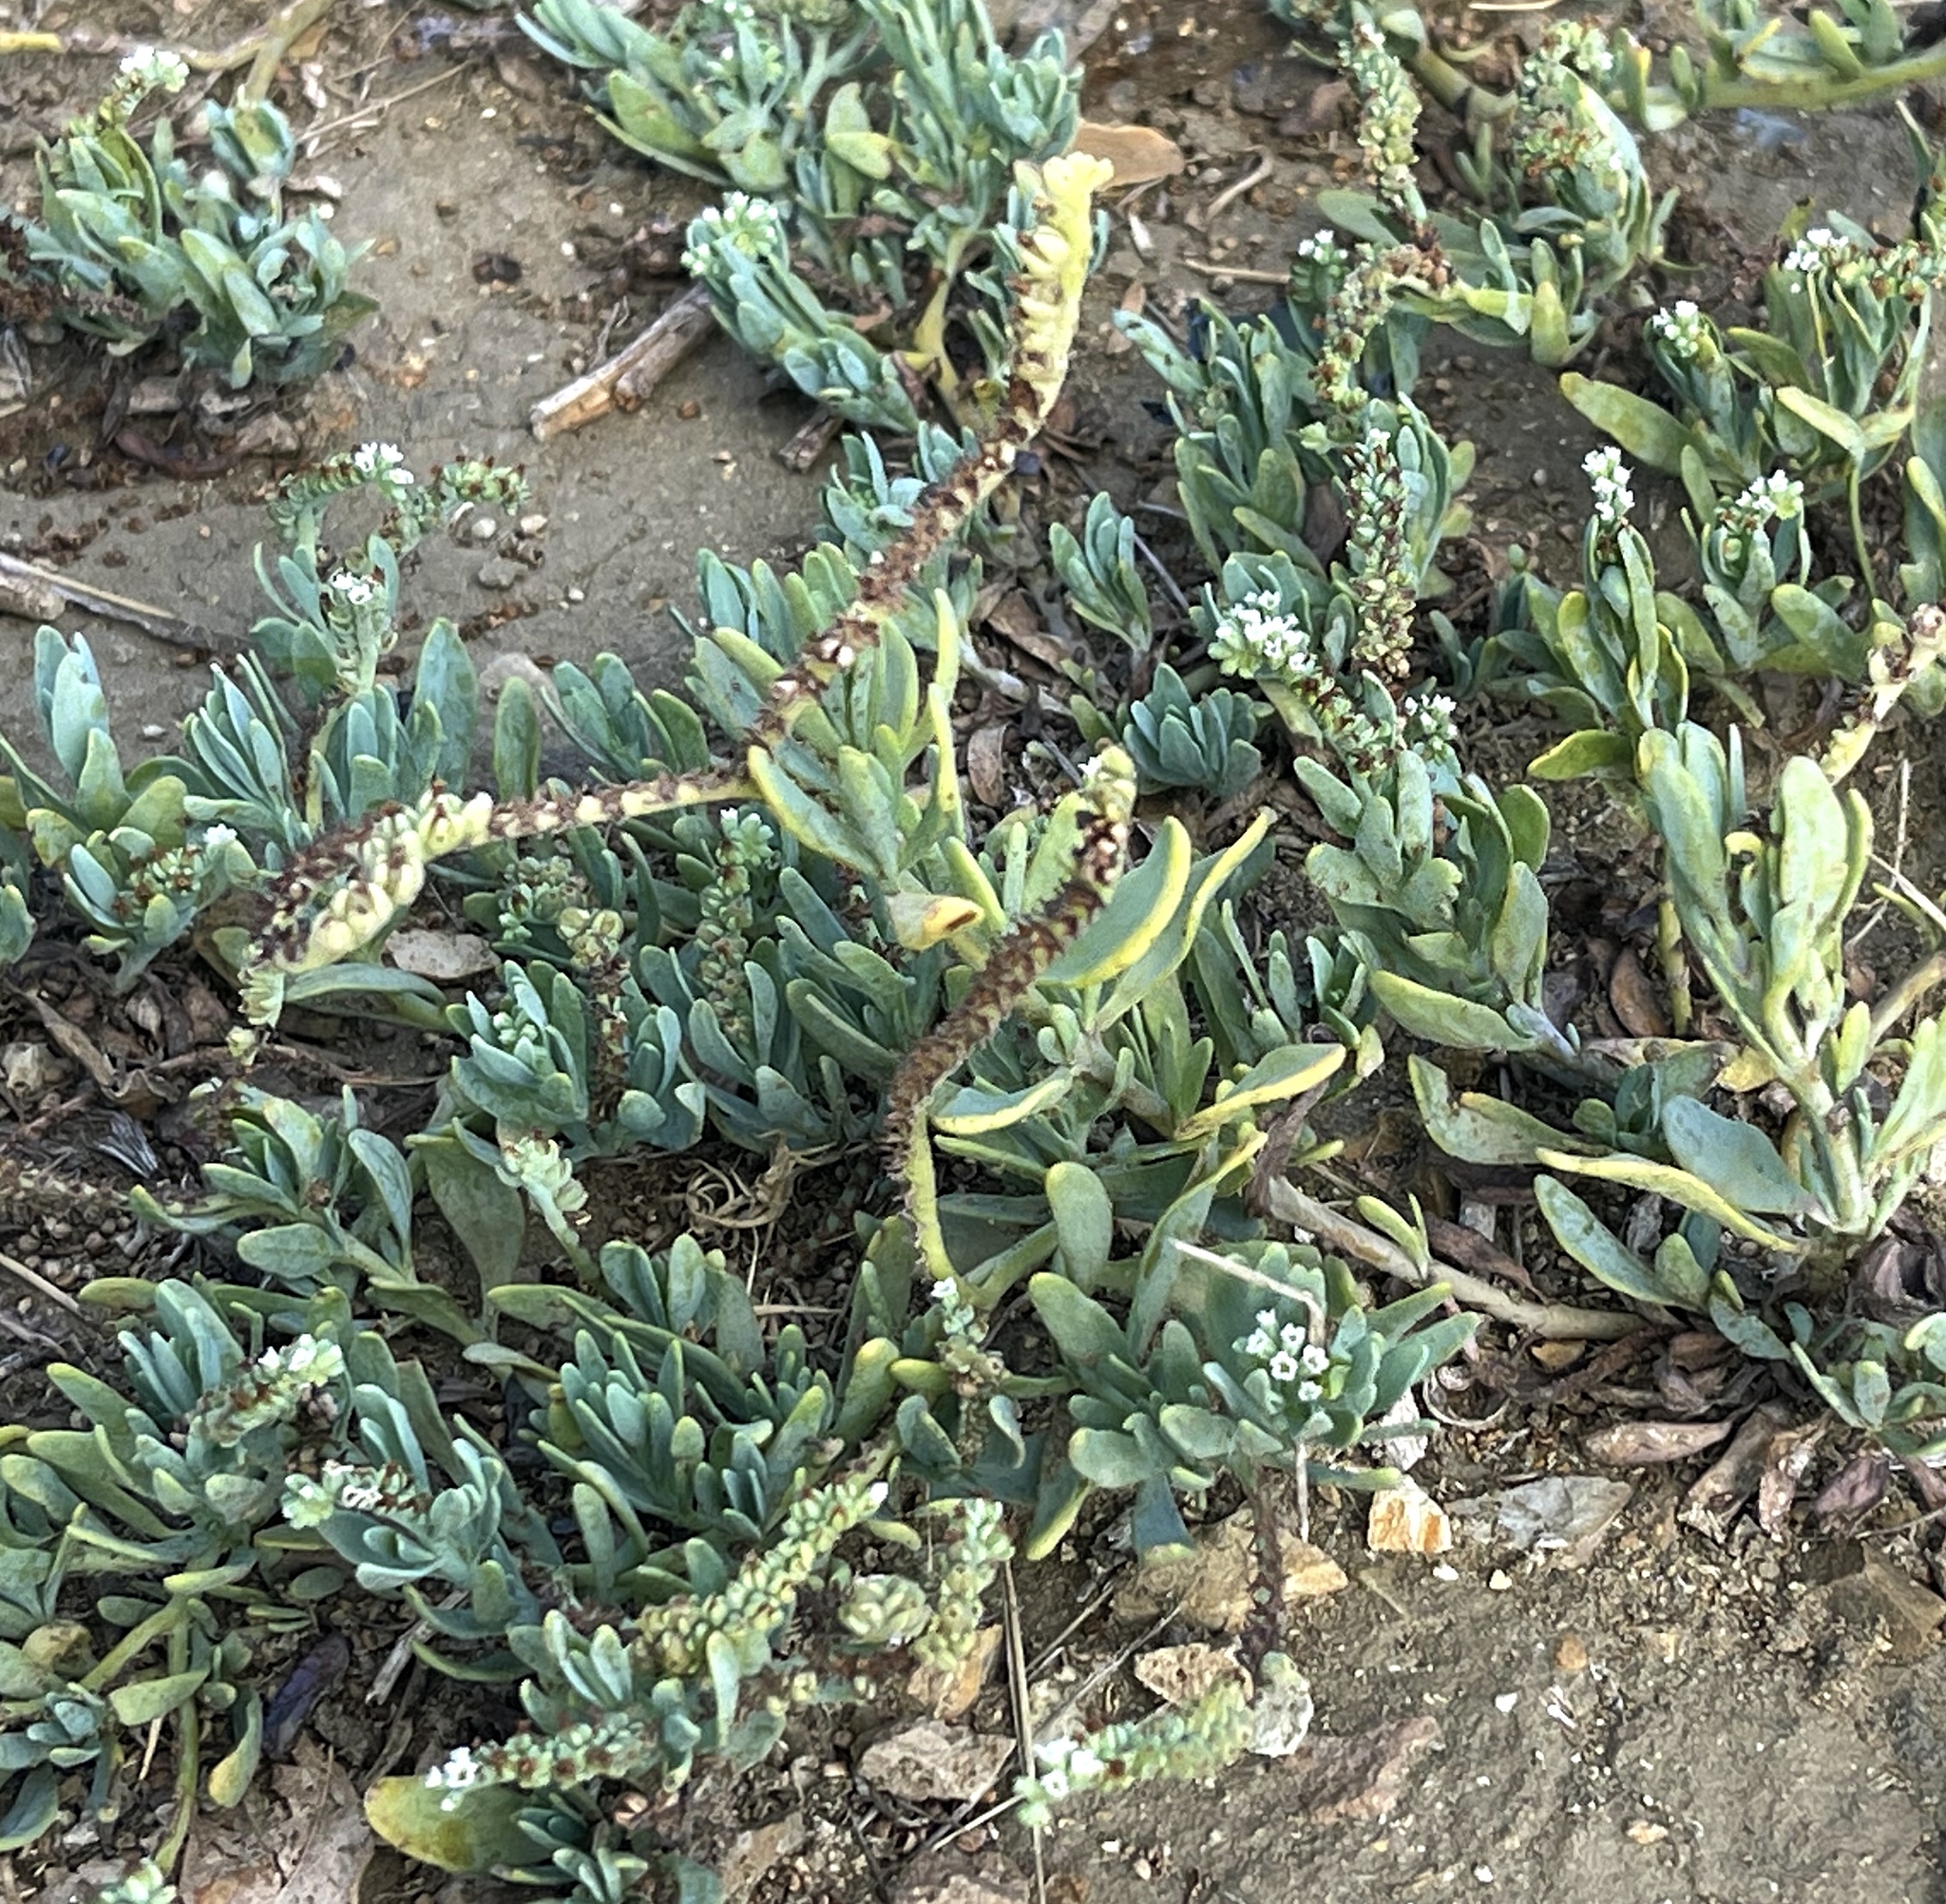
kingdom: Plantae
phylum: Tracheophyta
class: Magnoliopsida
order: Boraginales
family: Heliotropiaceae
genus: Heliotropium
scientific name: Heliotropium curassavicum
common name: Seaside heliotrope
